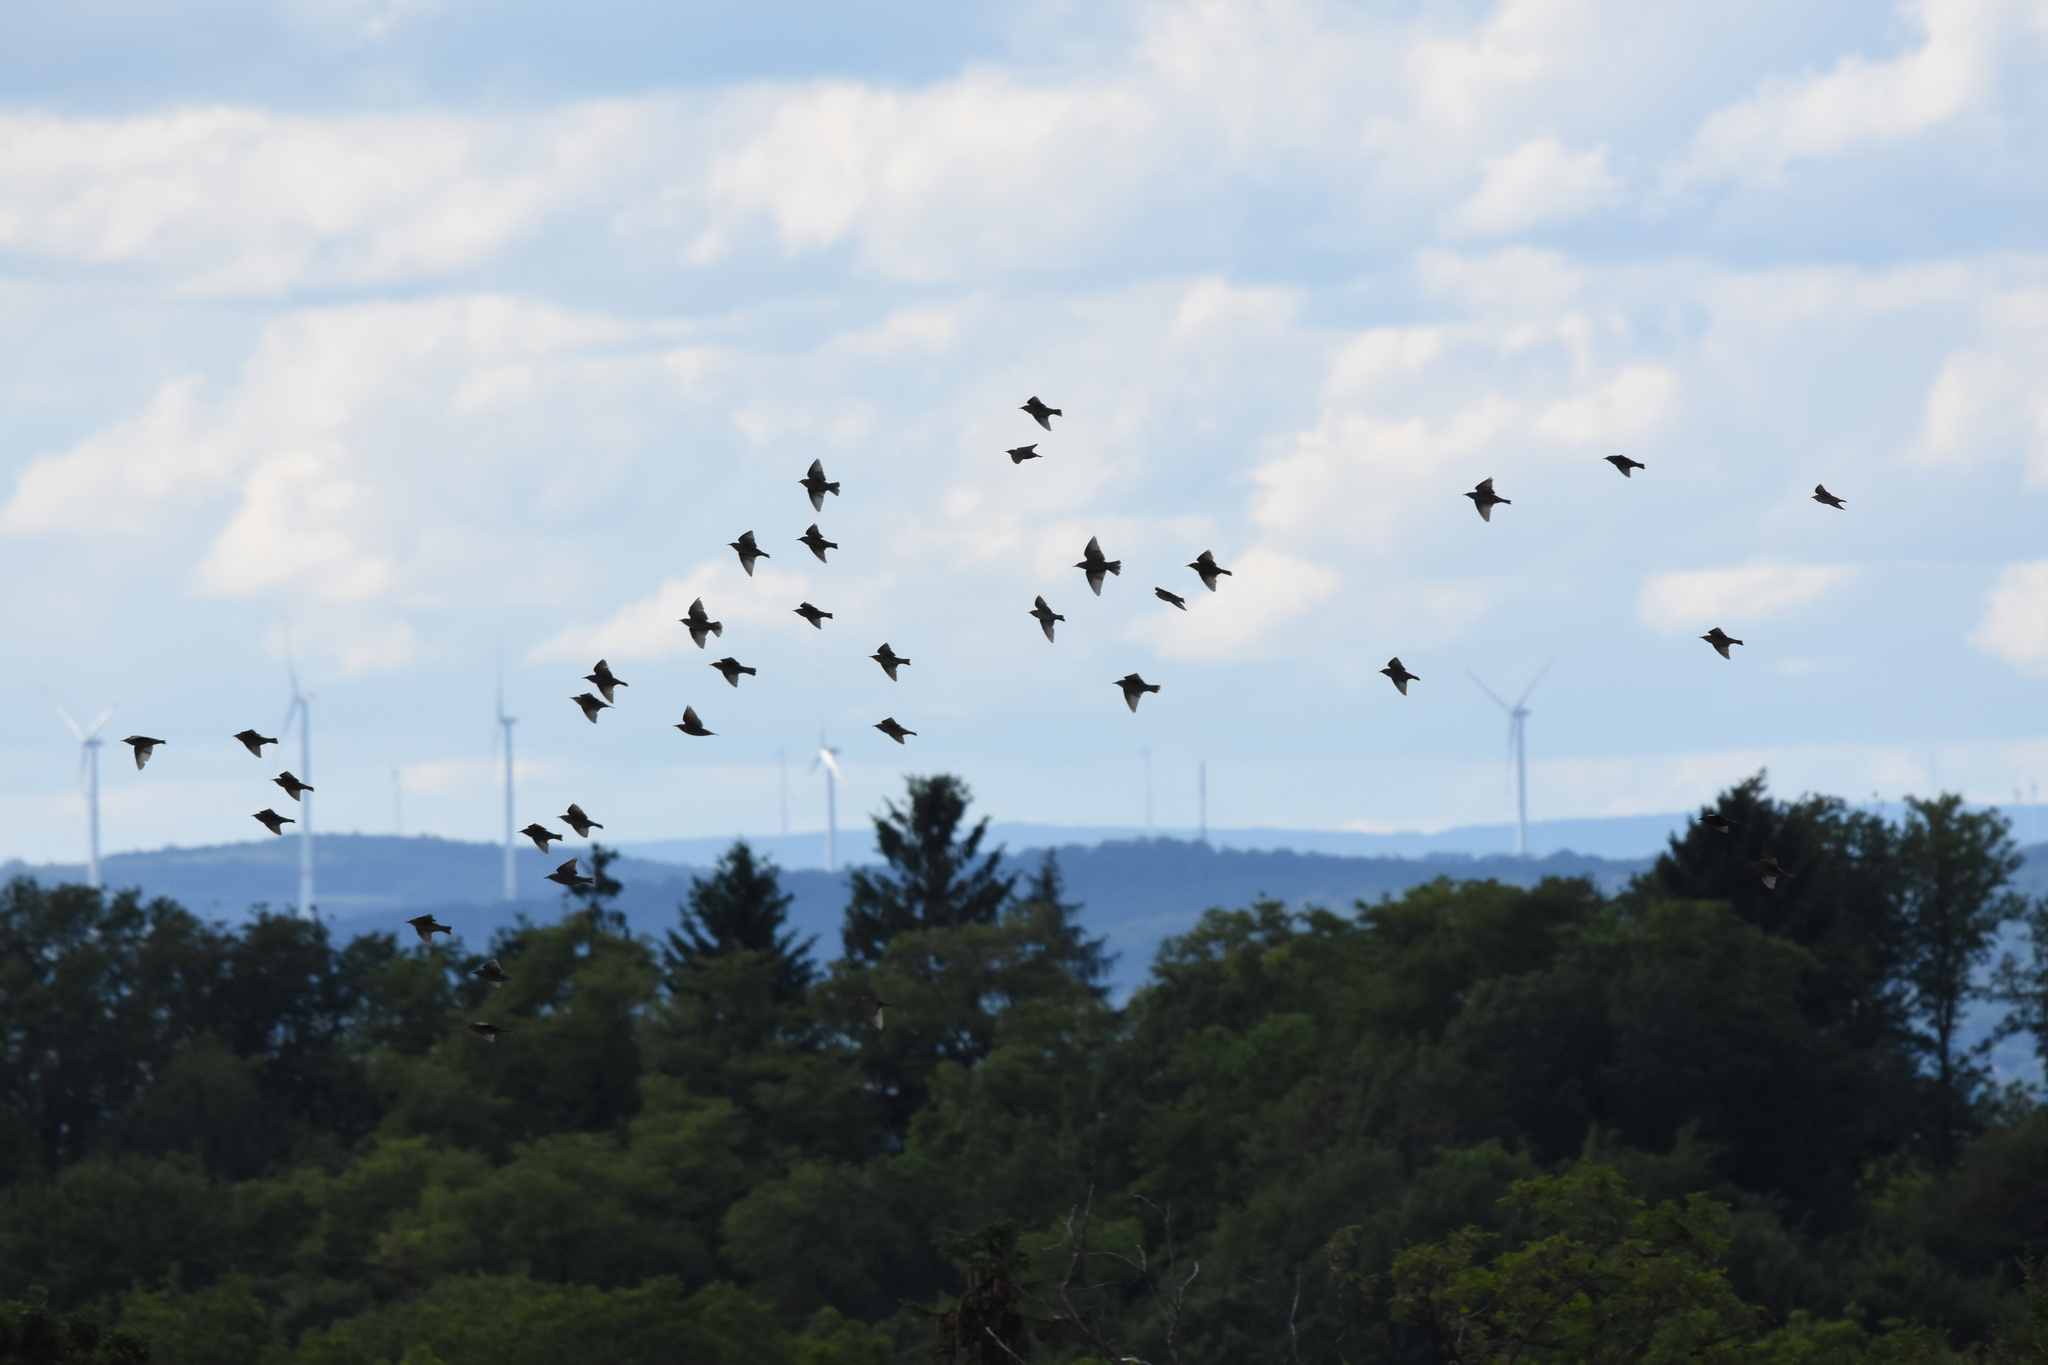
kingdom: Animalia
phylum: Chordata
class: Aves
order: Passeriformes
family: Sturnidae
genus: Sturnus
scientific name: Sturnus vulgaris
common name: Common starling
